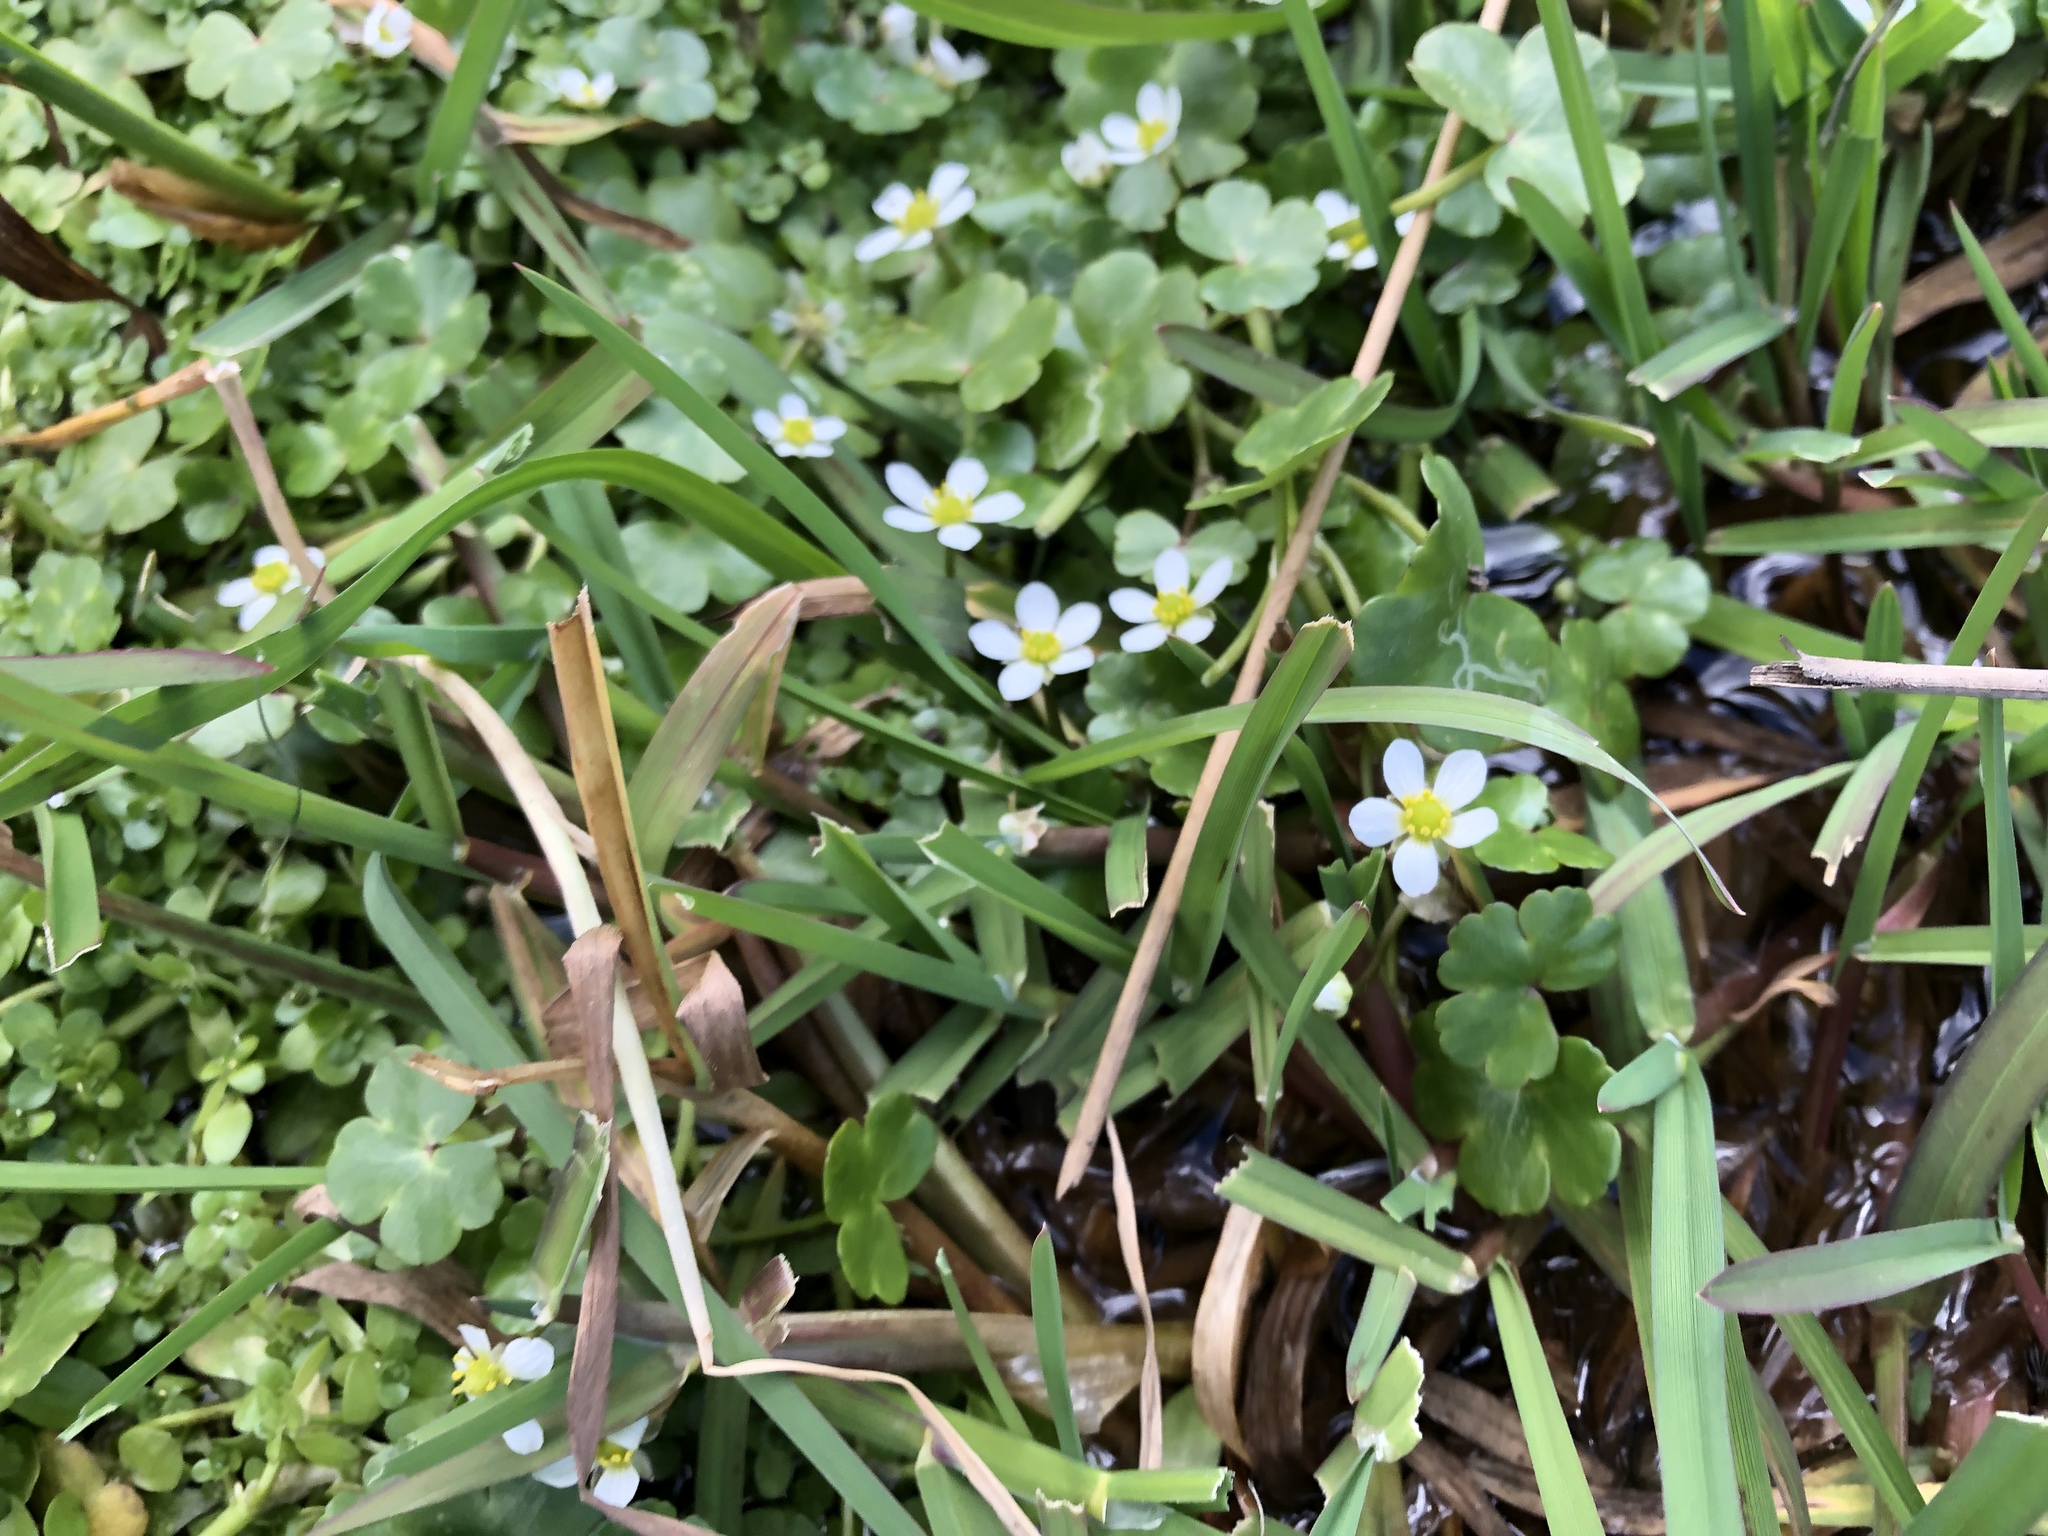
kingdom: Plantae
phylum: Tracheophyta
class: Magnoliopsida
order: Ranunculales
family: Ranunculaceae
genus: Ranunculus
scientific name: Ranunculus omiophyllus
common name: Round-leaved crowfoot
